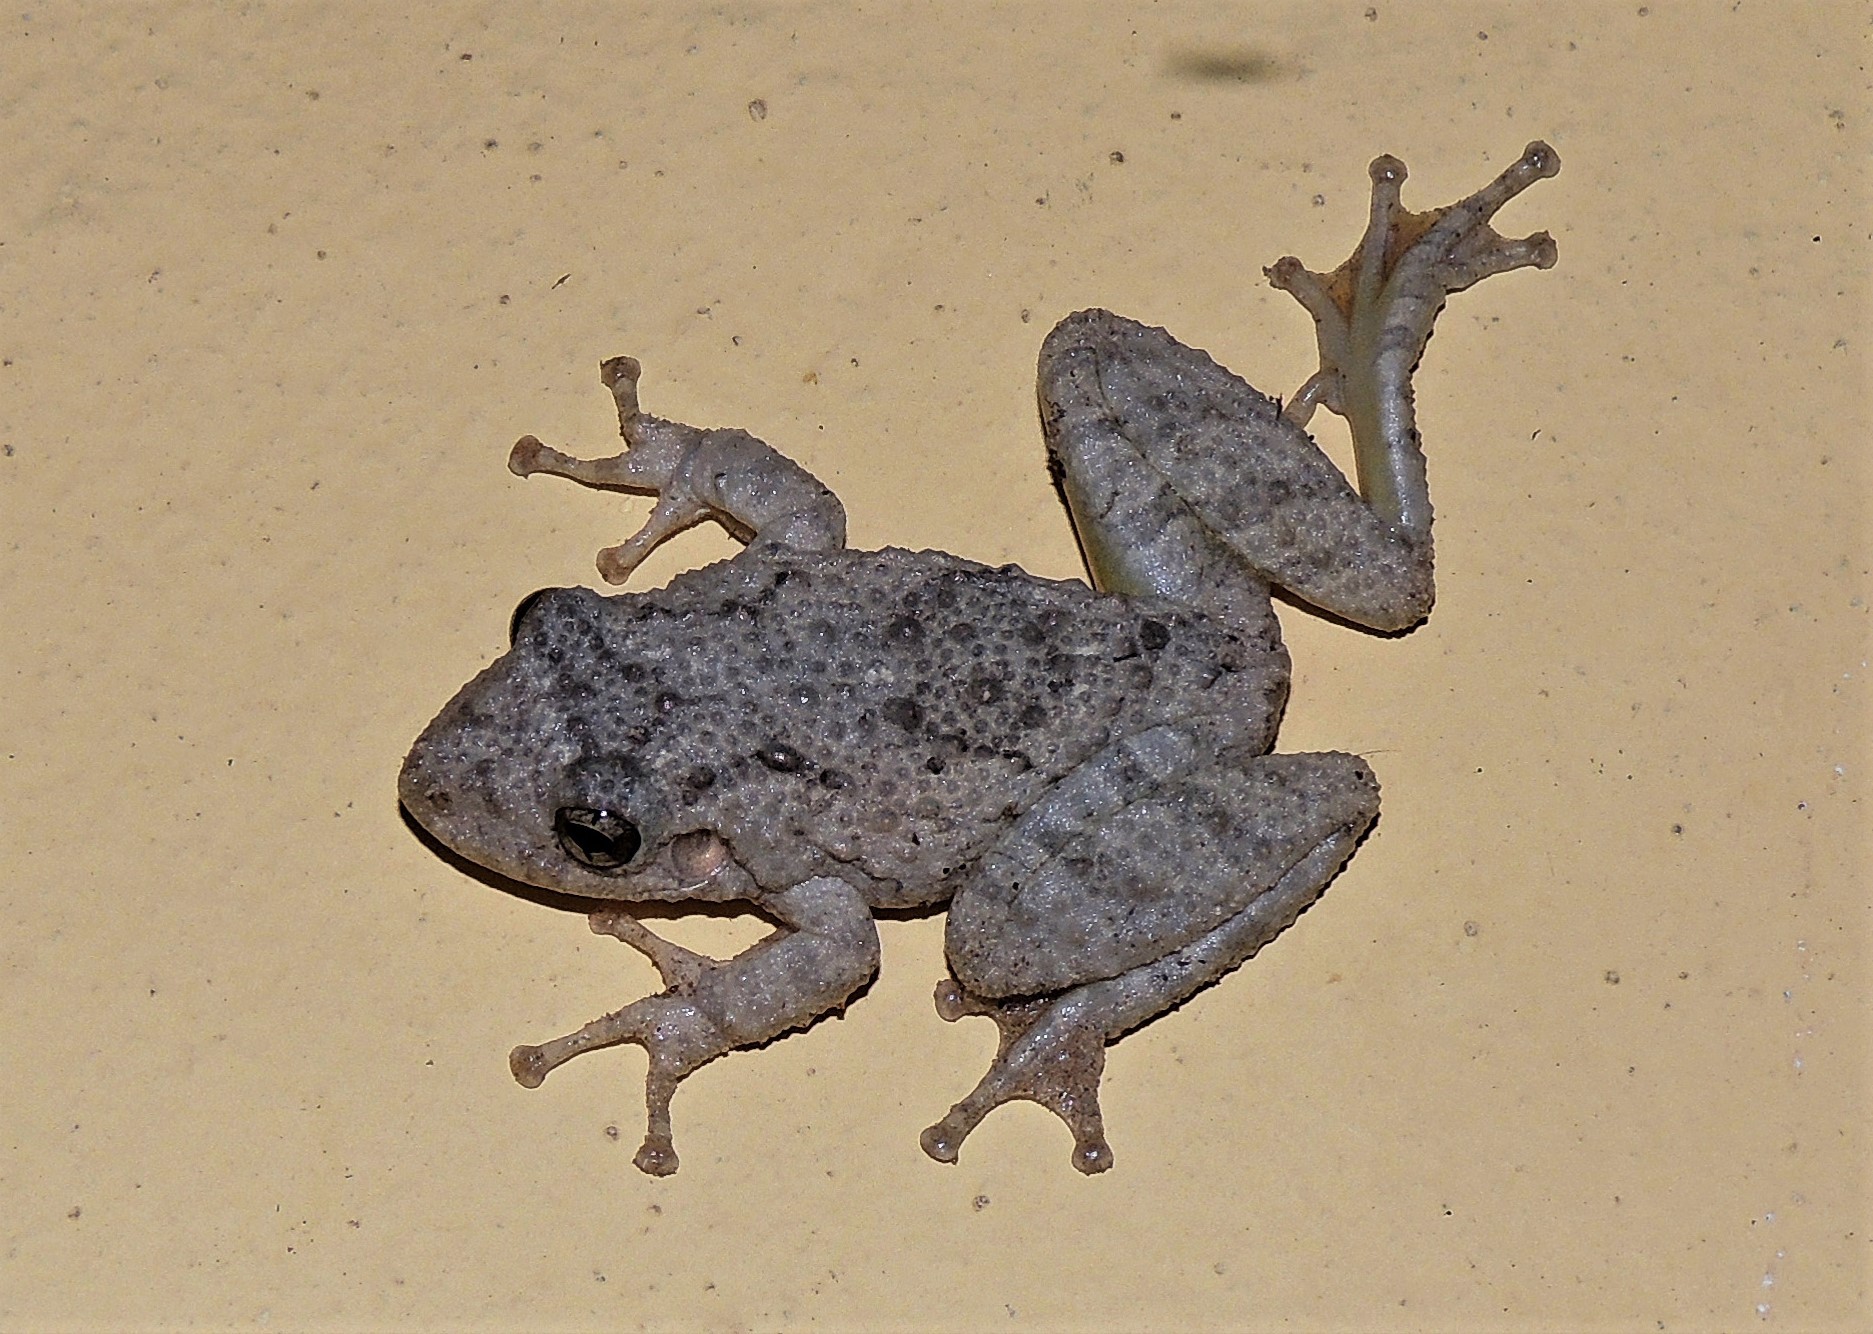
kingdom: Animalia
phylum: Chordata
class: Amphibia
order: Anura
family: Hylidae
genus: Scinax
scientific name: Scinax acuminatus
